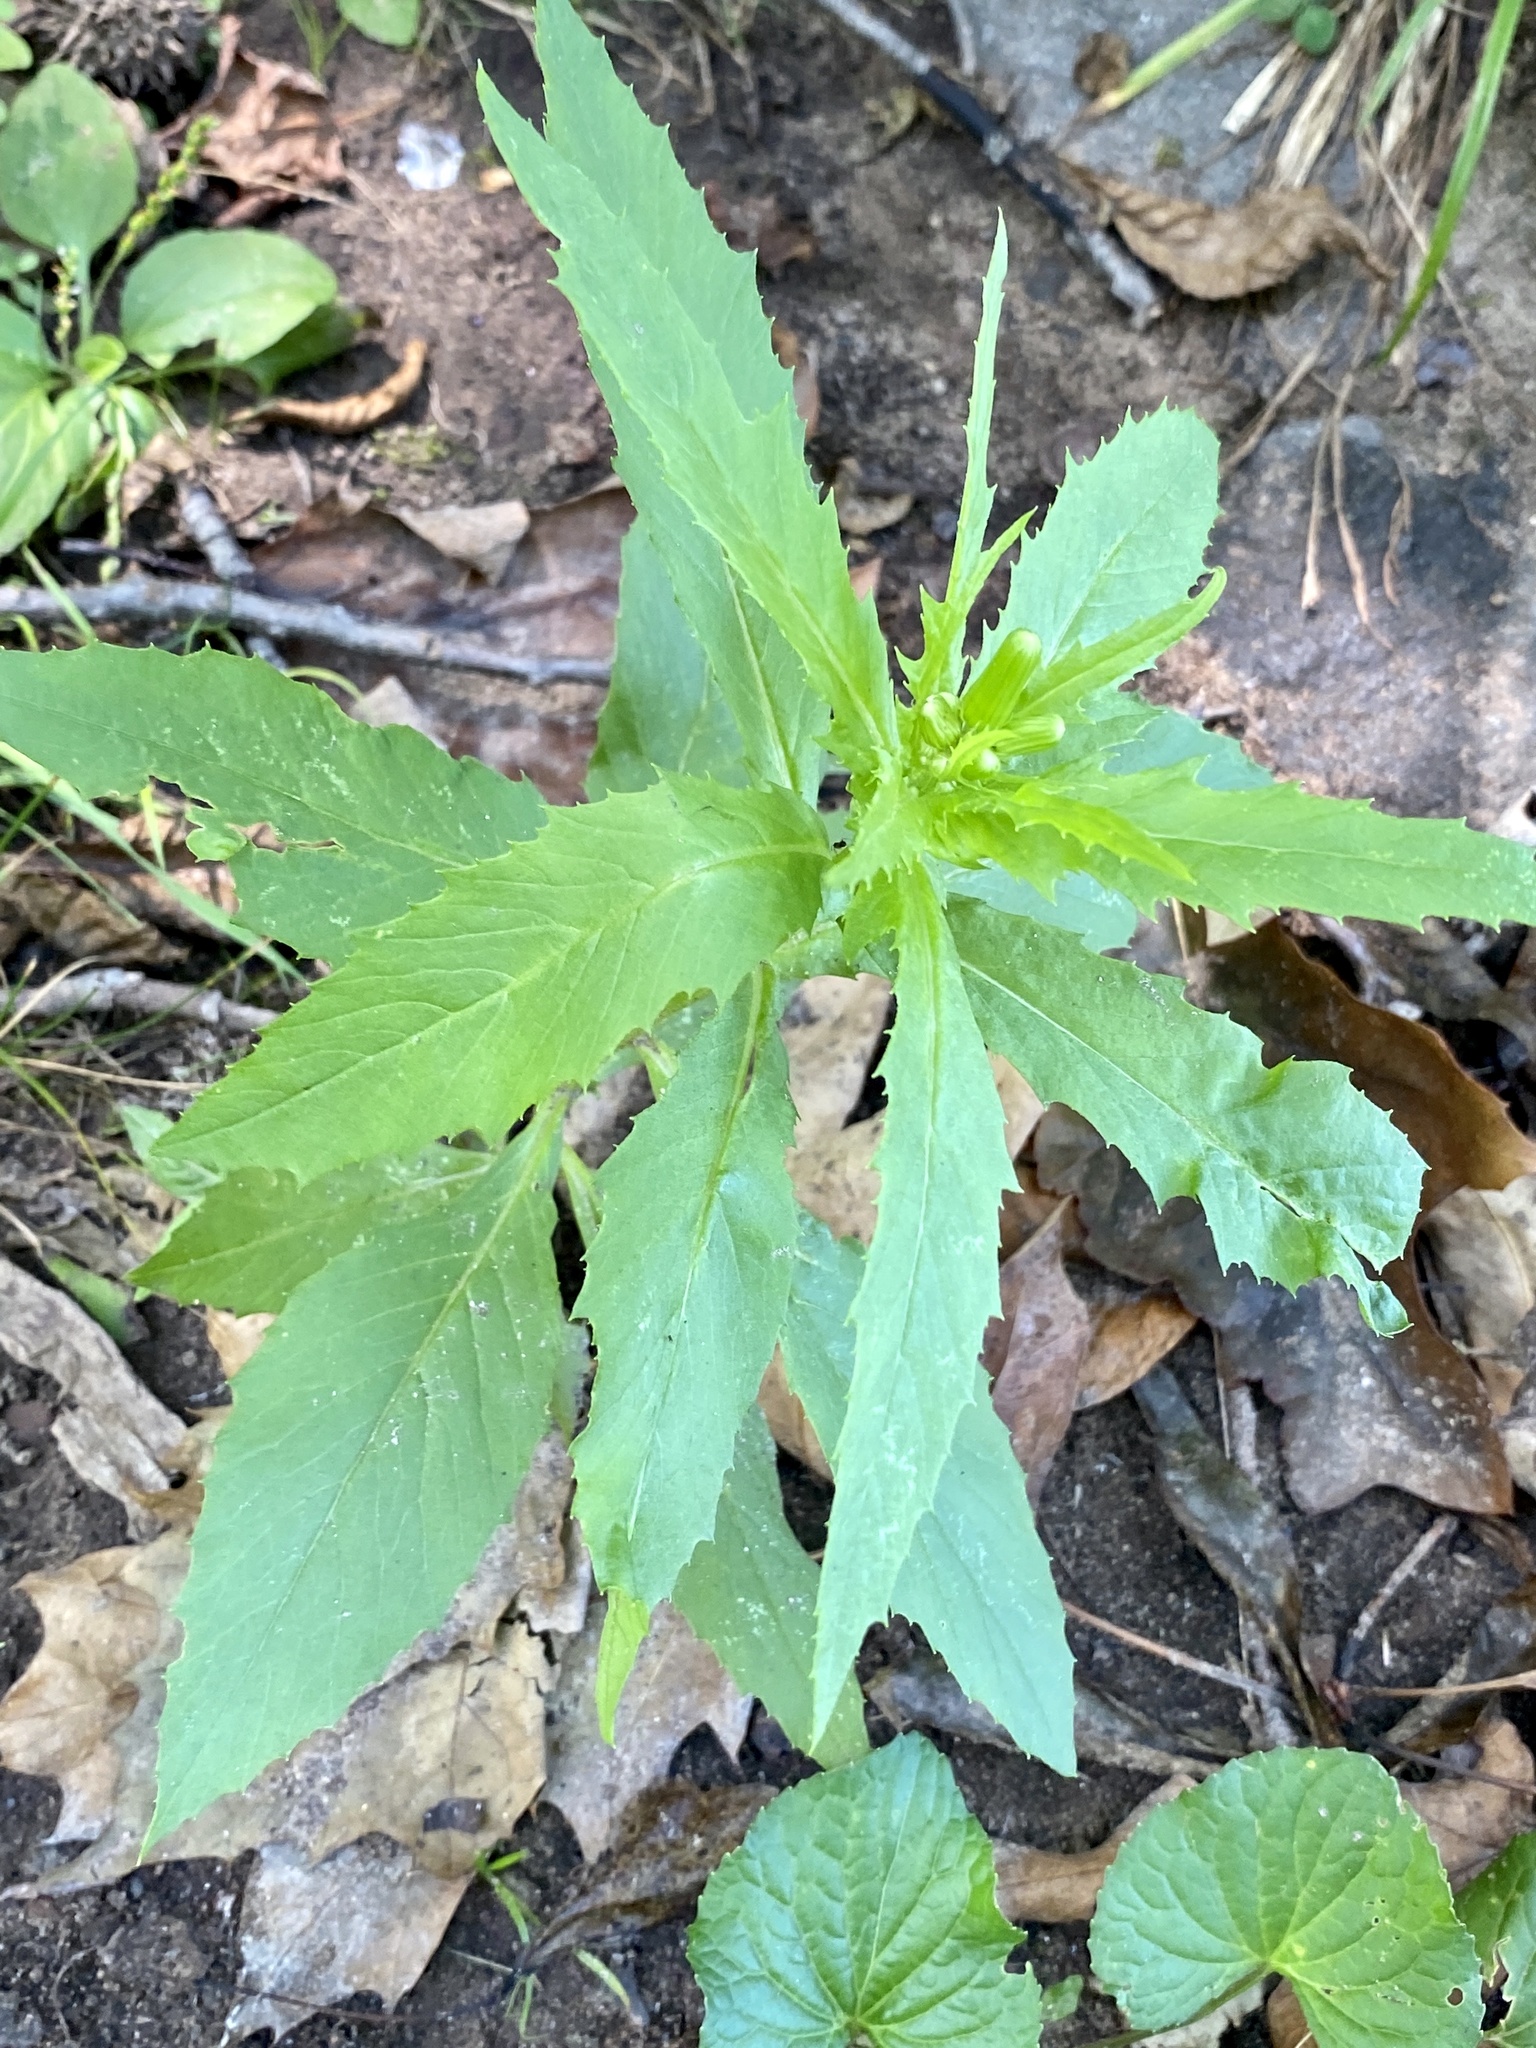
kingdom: Plantae
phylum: Tracheophyta
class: Magnoliopsida
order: Asterales
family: Asteraceae
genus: Erechtites
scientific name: Erechtites hieraciifolius
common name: American burnweed
